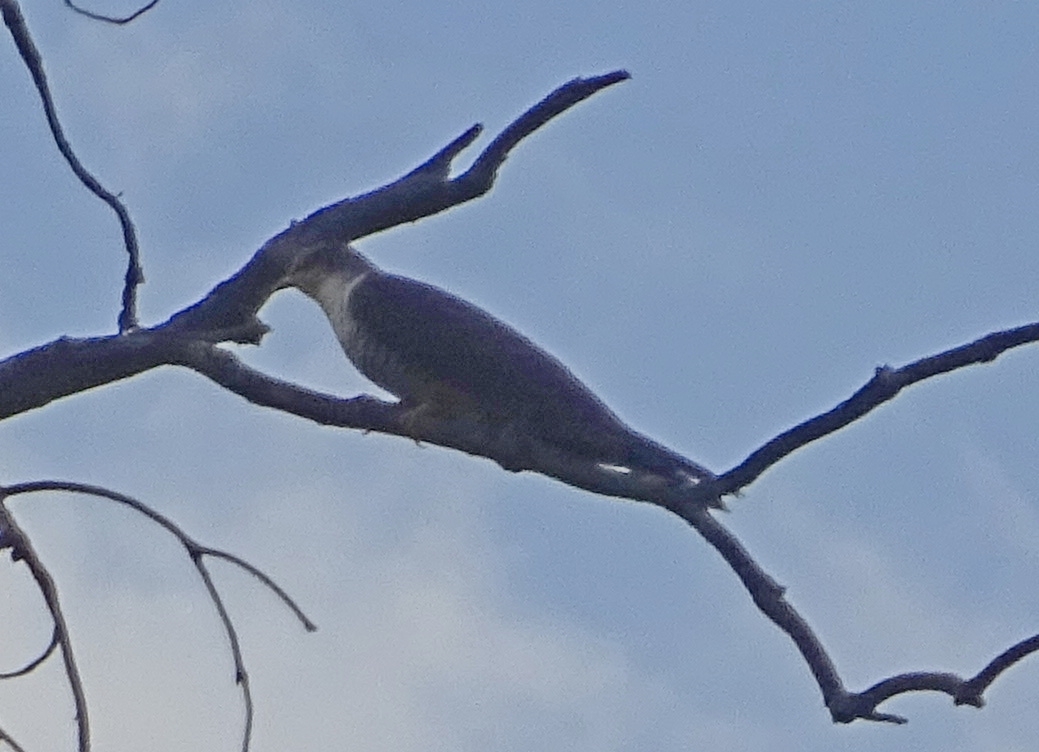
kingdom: Animalia
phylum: Chordata
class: Aves
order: Cuculiformes
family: Cuculidae
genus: Cuculus
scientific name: Cuculus canorus
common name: Common cuckoo
